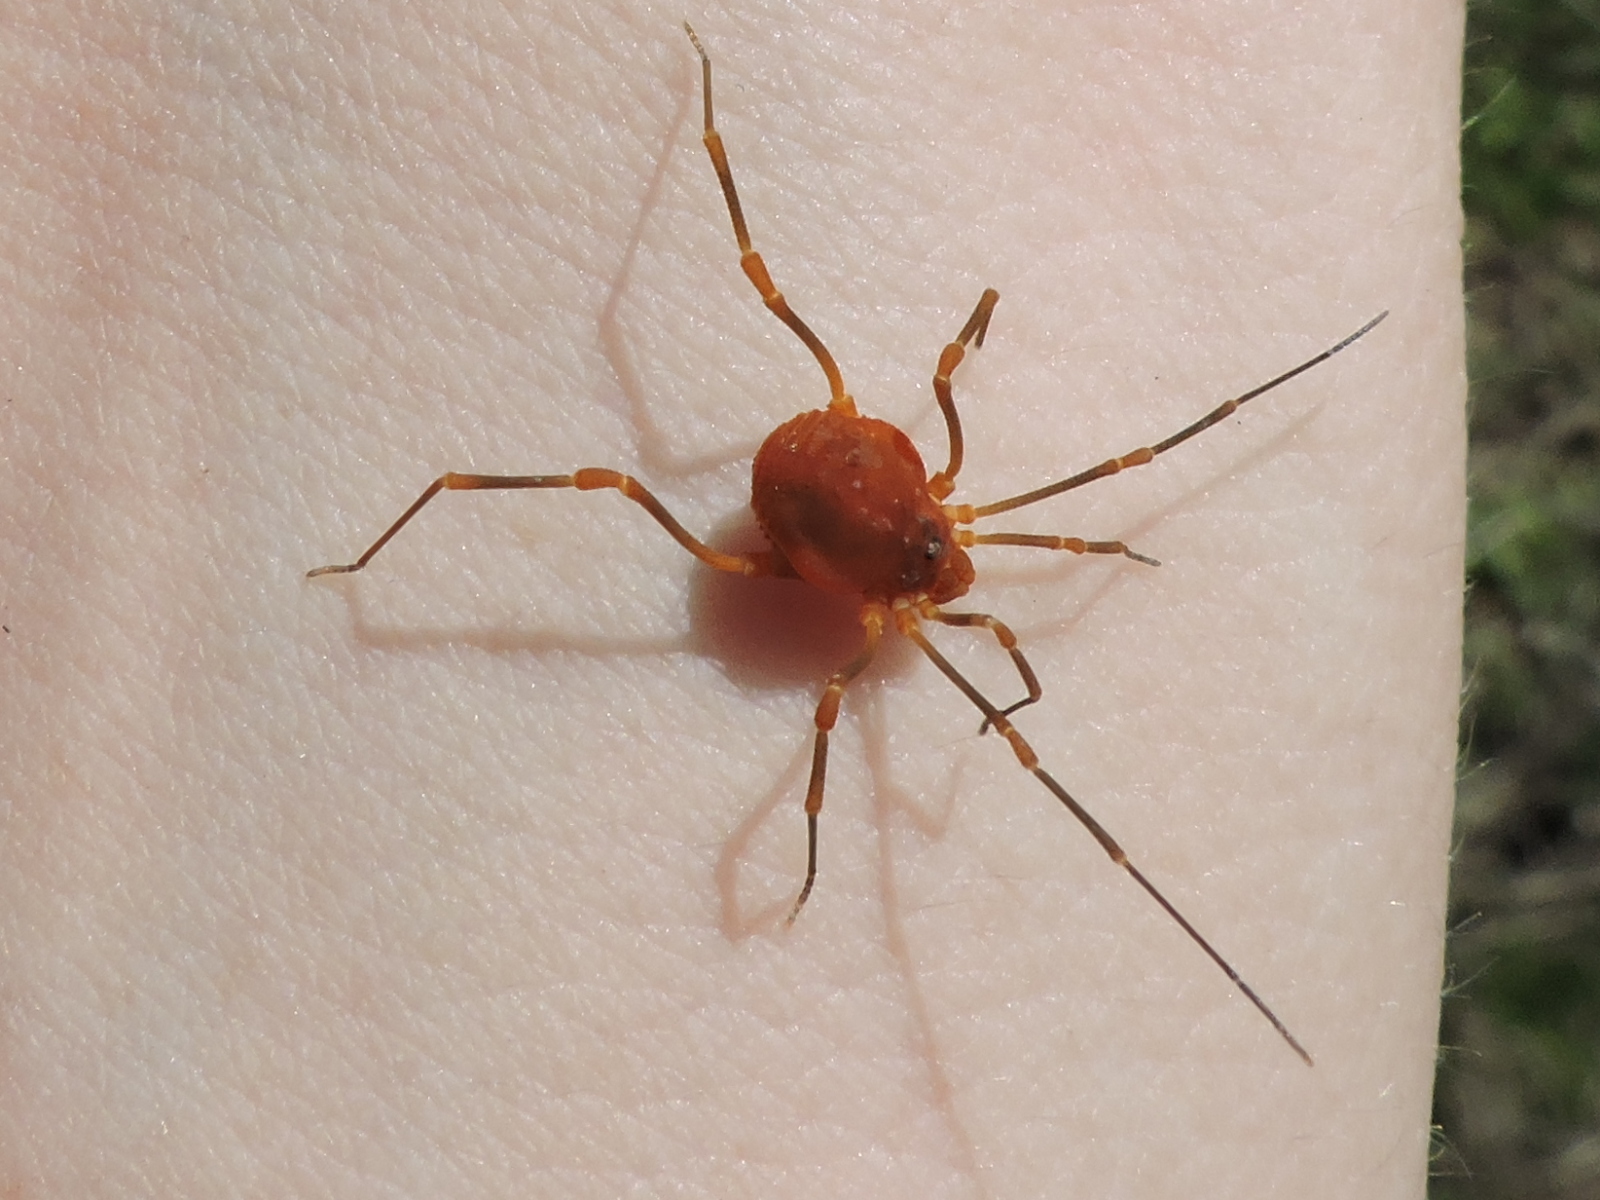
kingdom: Animalia
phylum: Arthropoda
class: Arachnida
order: Opiliones
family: Cosmetidae
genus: Libitioides
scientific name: Libitioides sayi
